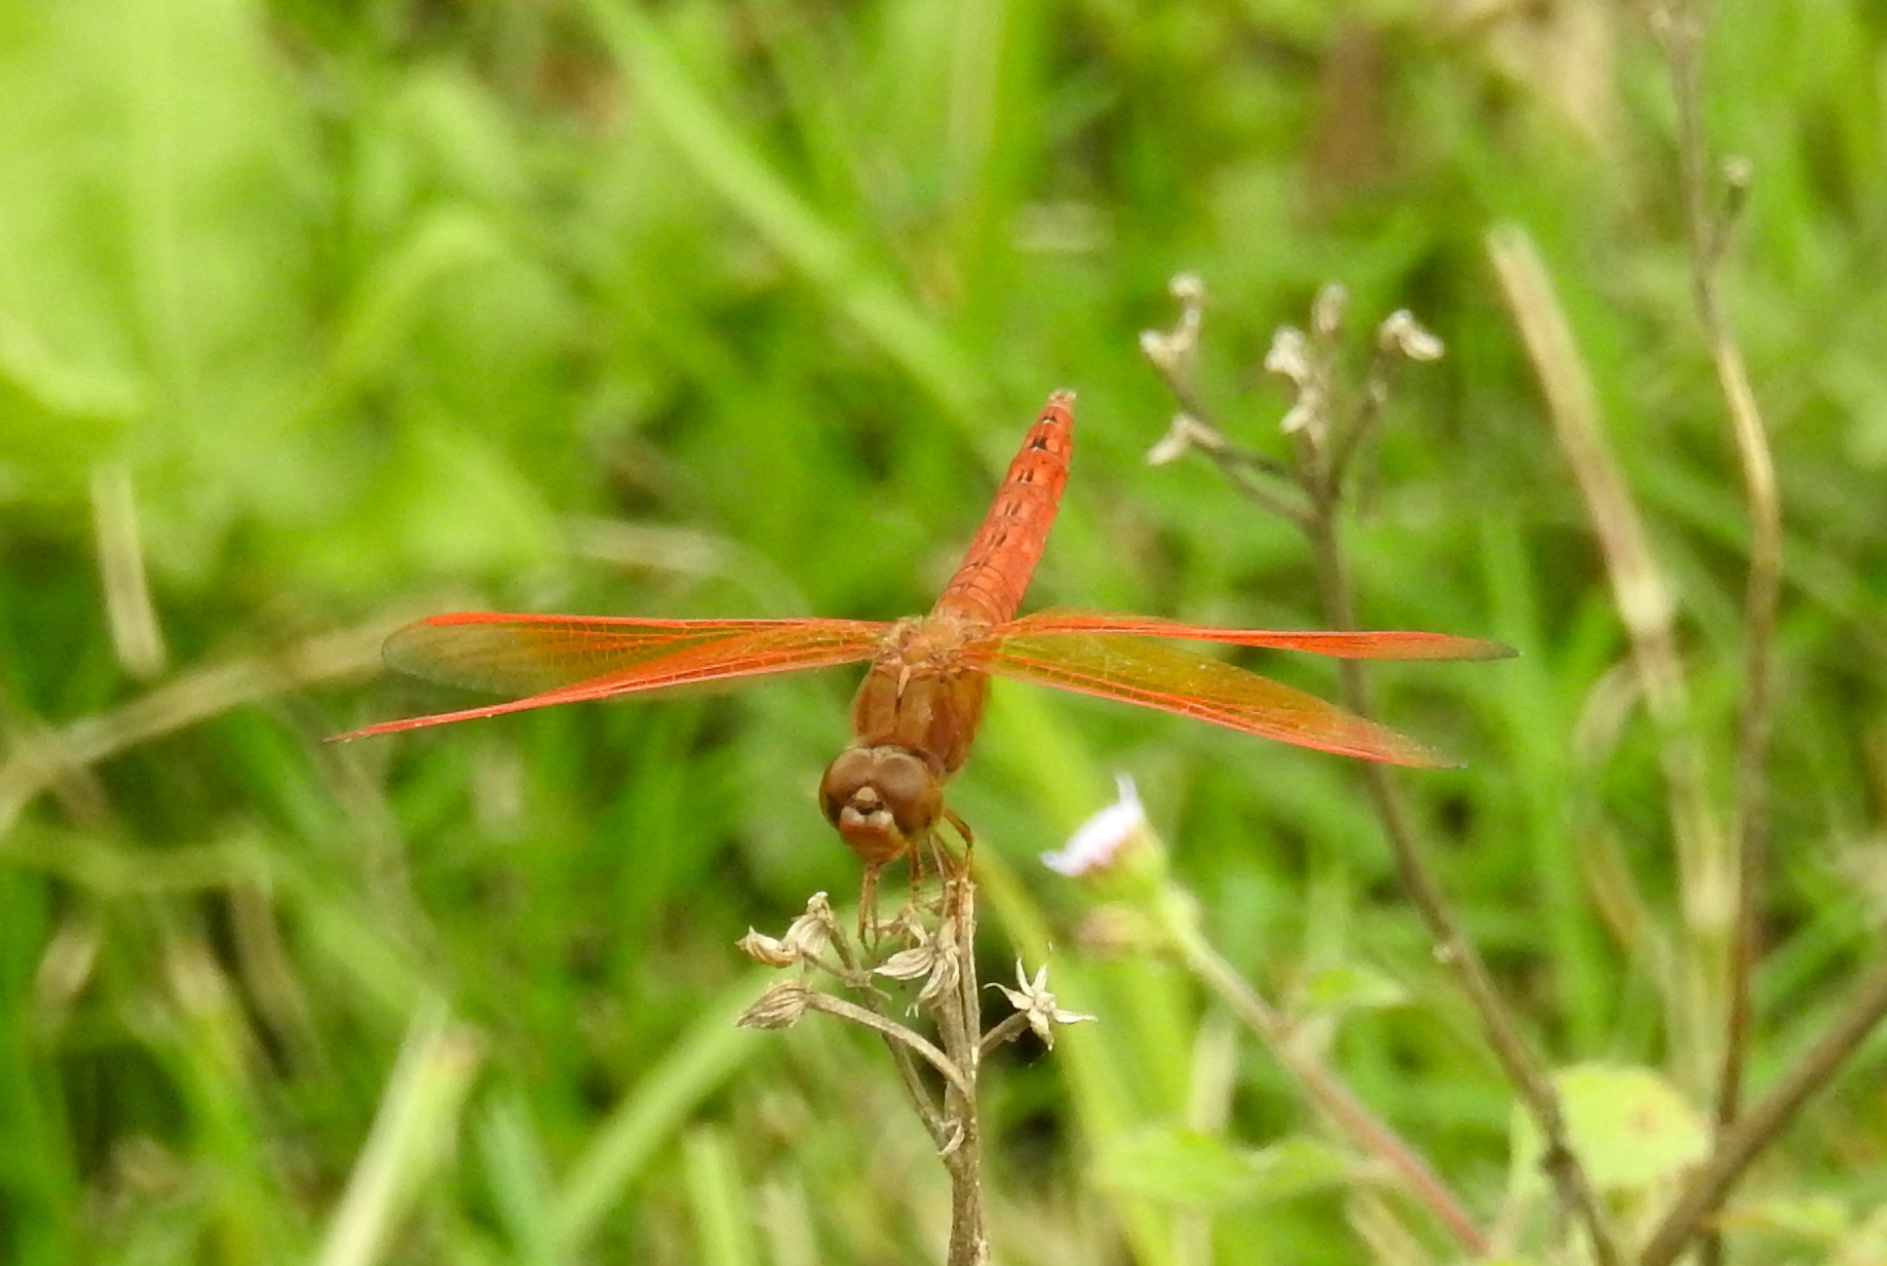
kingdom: Animalia
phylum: Arthropoda
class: Insecta
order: Odonata
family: Libellulidae
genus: Brachythemis
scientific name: Brachythemis contaminata
